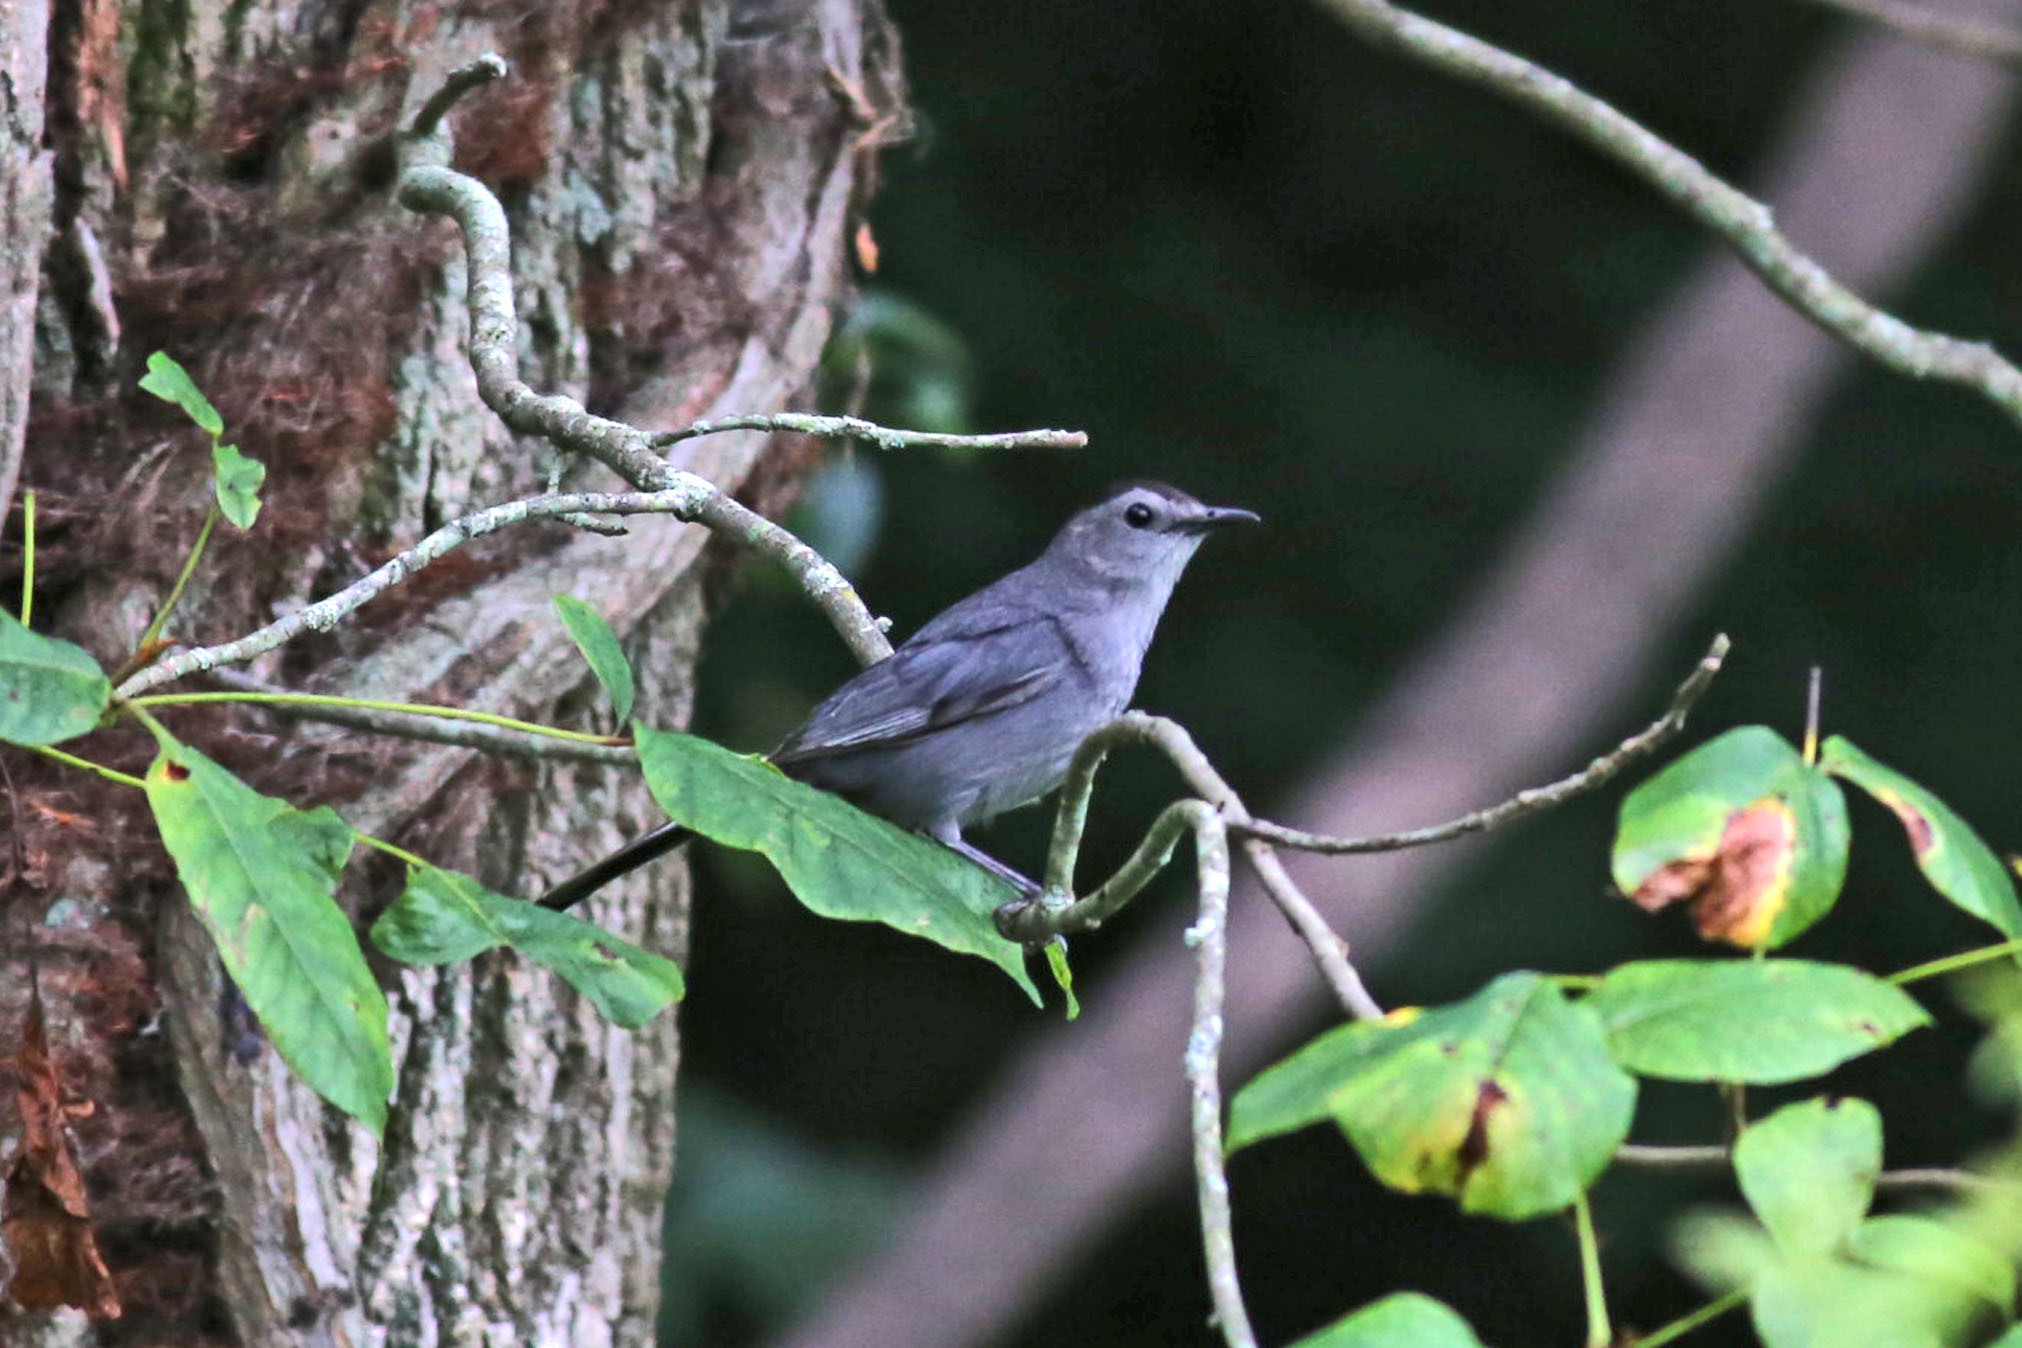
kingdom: Animalia
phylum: Chordata
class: Aves
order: Passeriformes
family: Mimidae
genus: Dumetella
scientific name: Dumetella carolinensis
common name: Gray catbird
